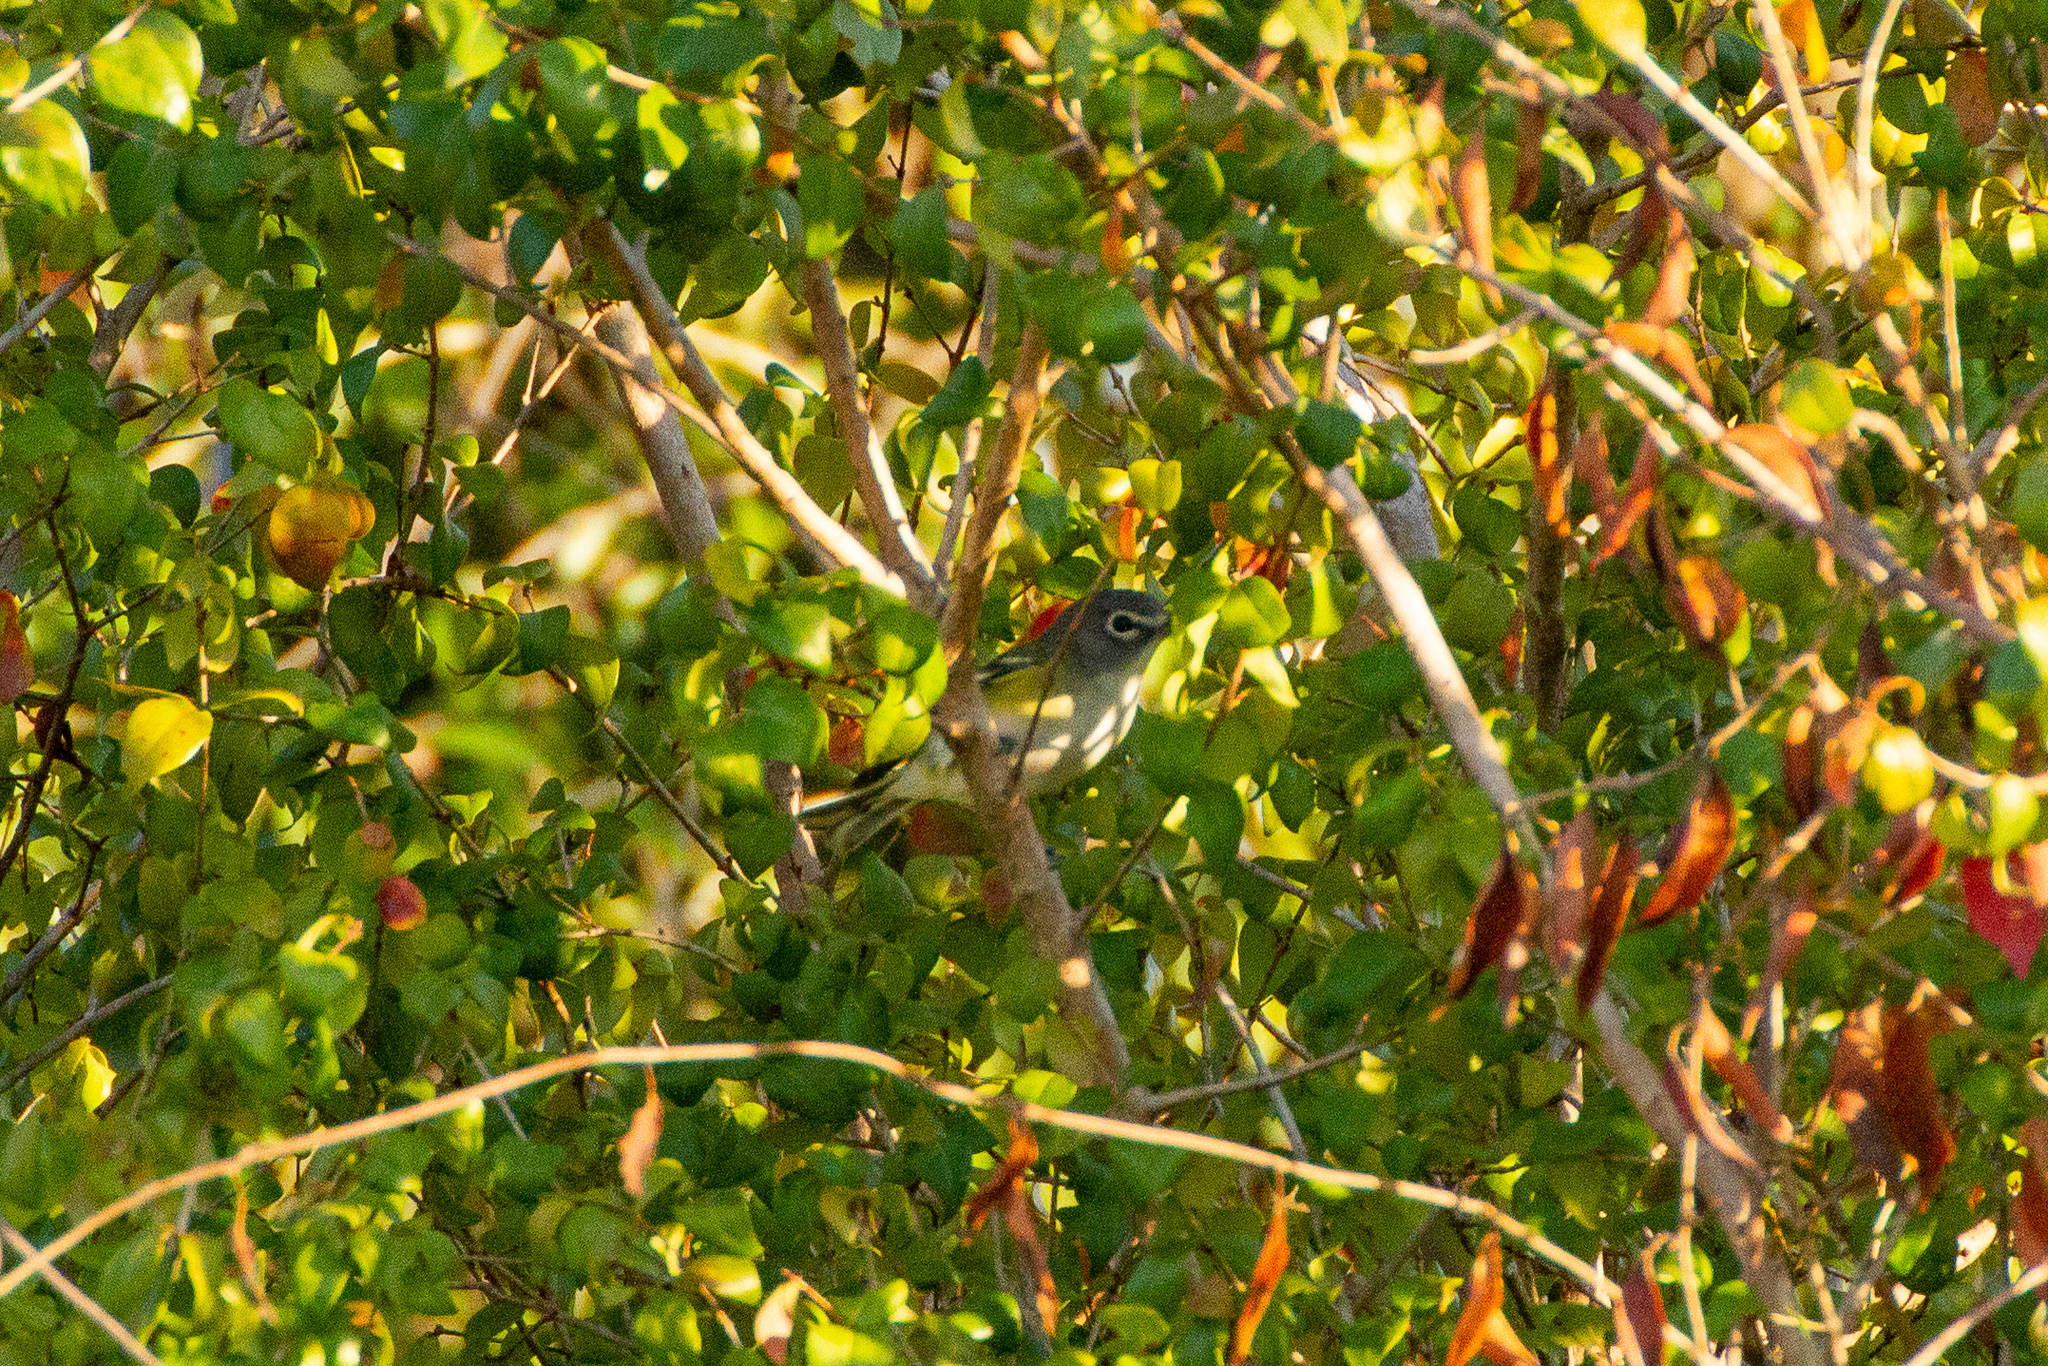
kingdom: Animalia
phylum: Chordata
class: Aves
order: Passeriformes
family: Vireonidae
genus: Vireo
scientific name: Vireo solitarius
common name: Blue-headed vireo
